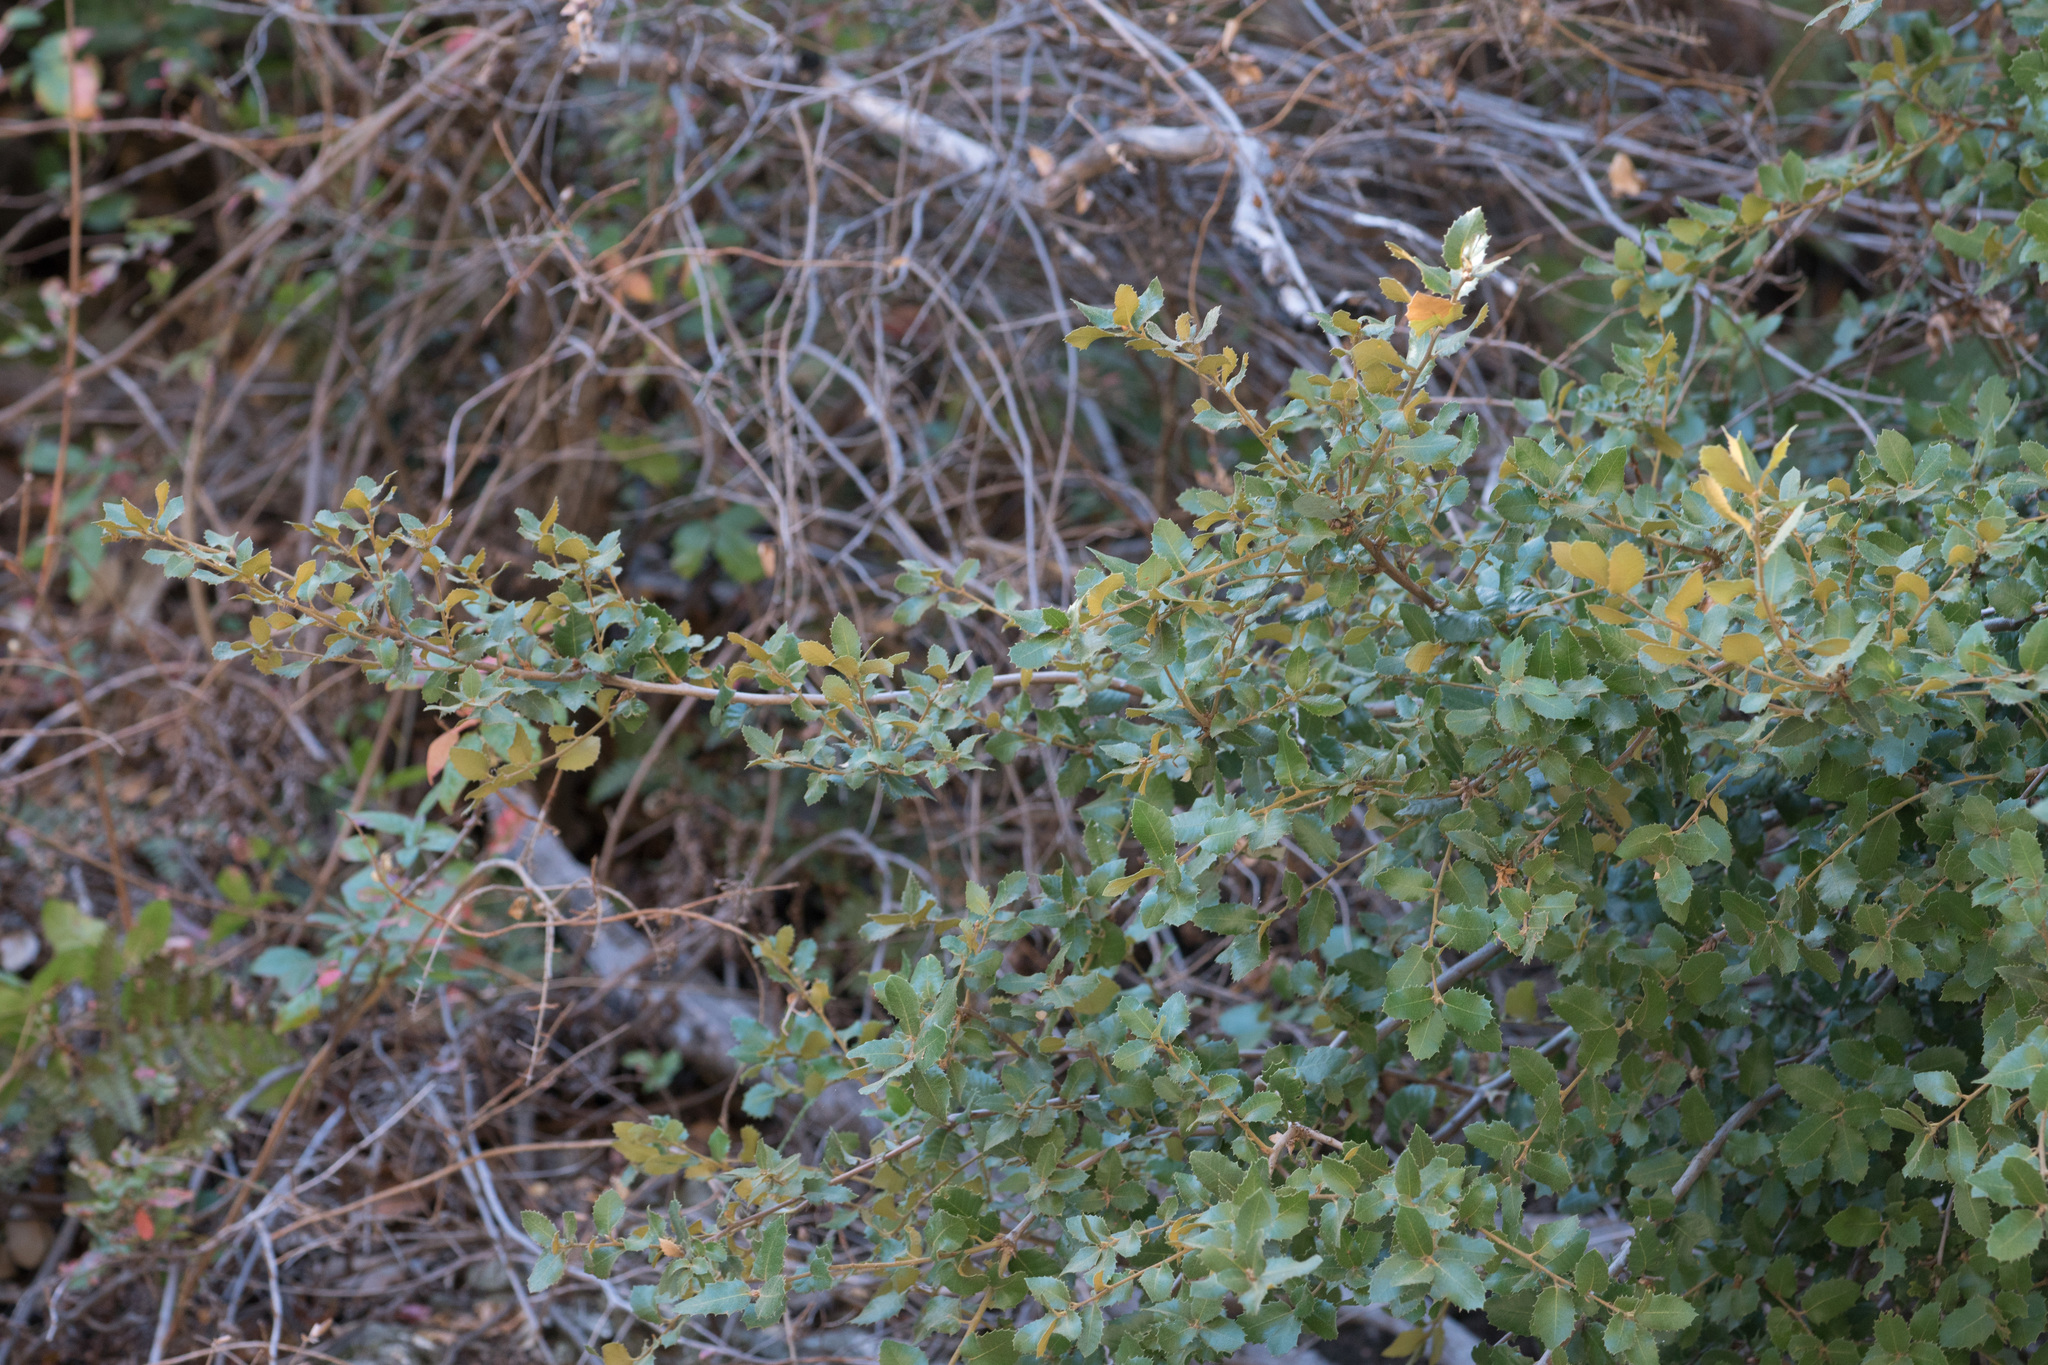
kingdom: Plantae
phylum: Tracheophyta
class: Magnoliopsida
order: Fagales
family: Fagaceae
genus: Quercus
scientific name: Quercus chrysolepis
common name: Canyon live oak
